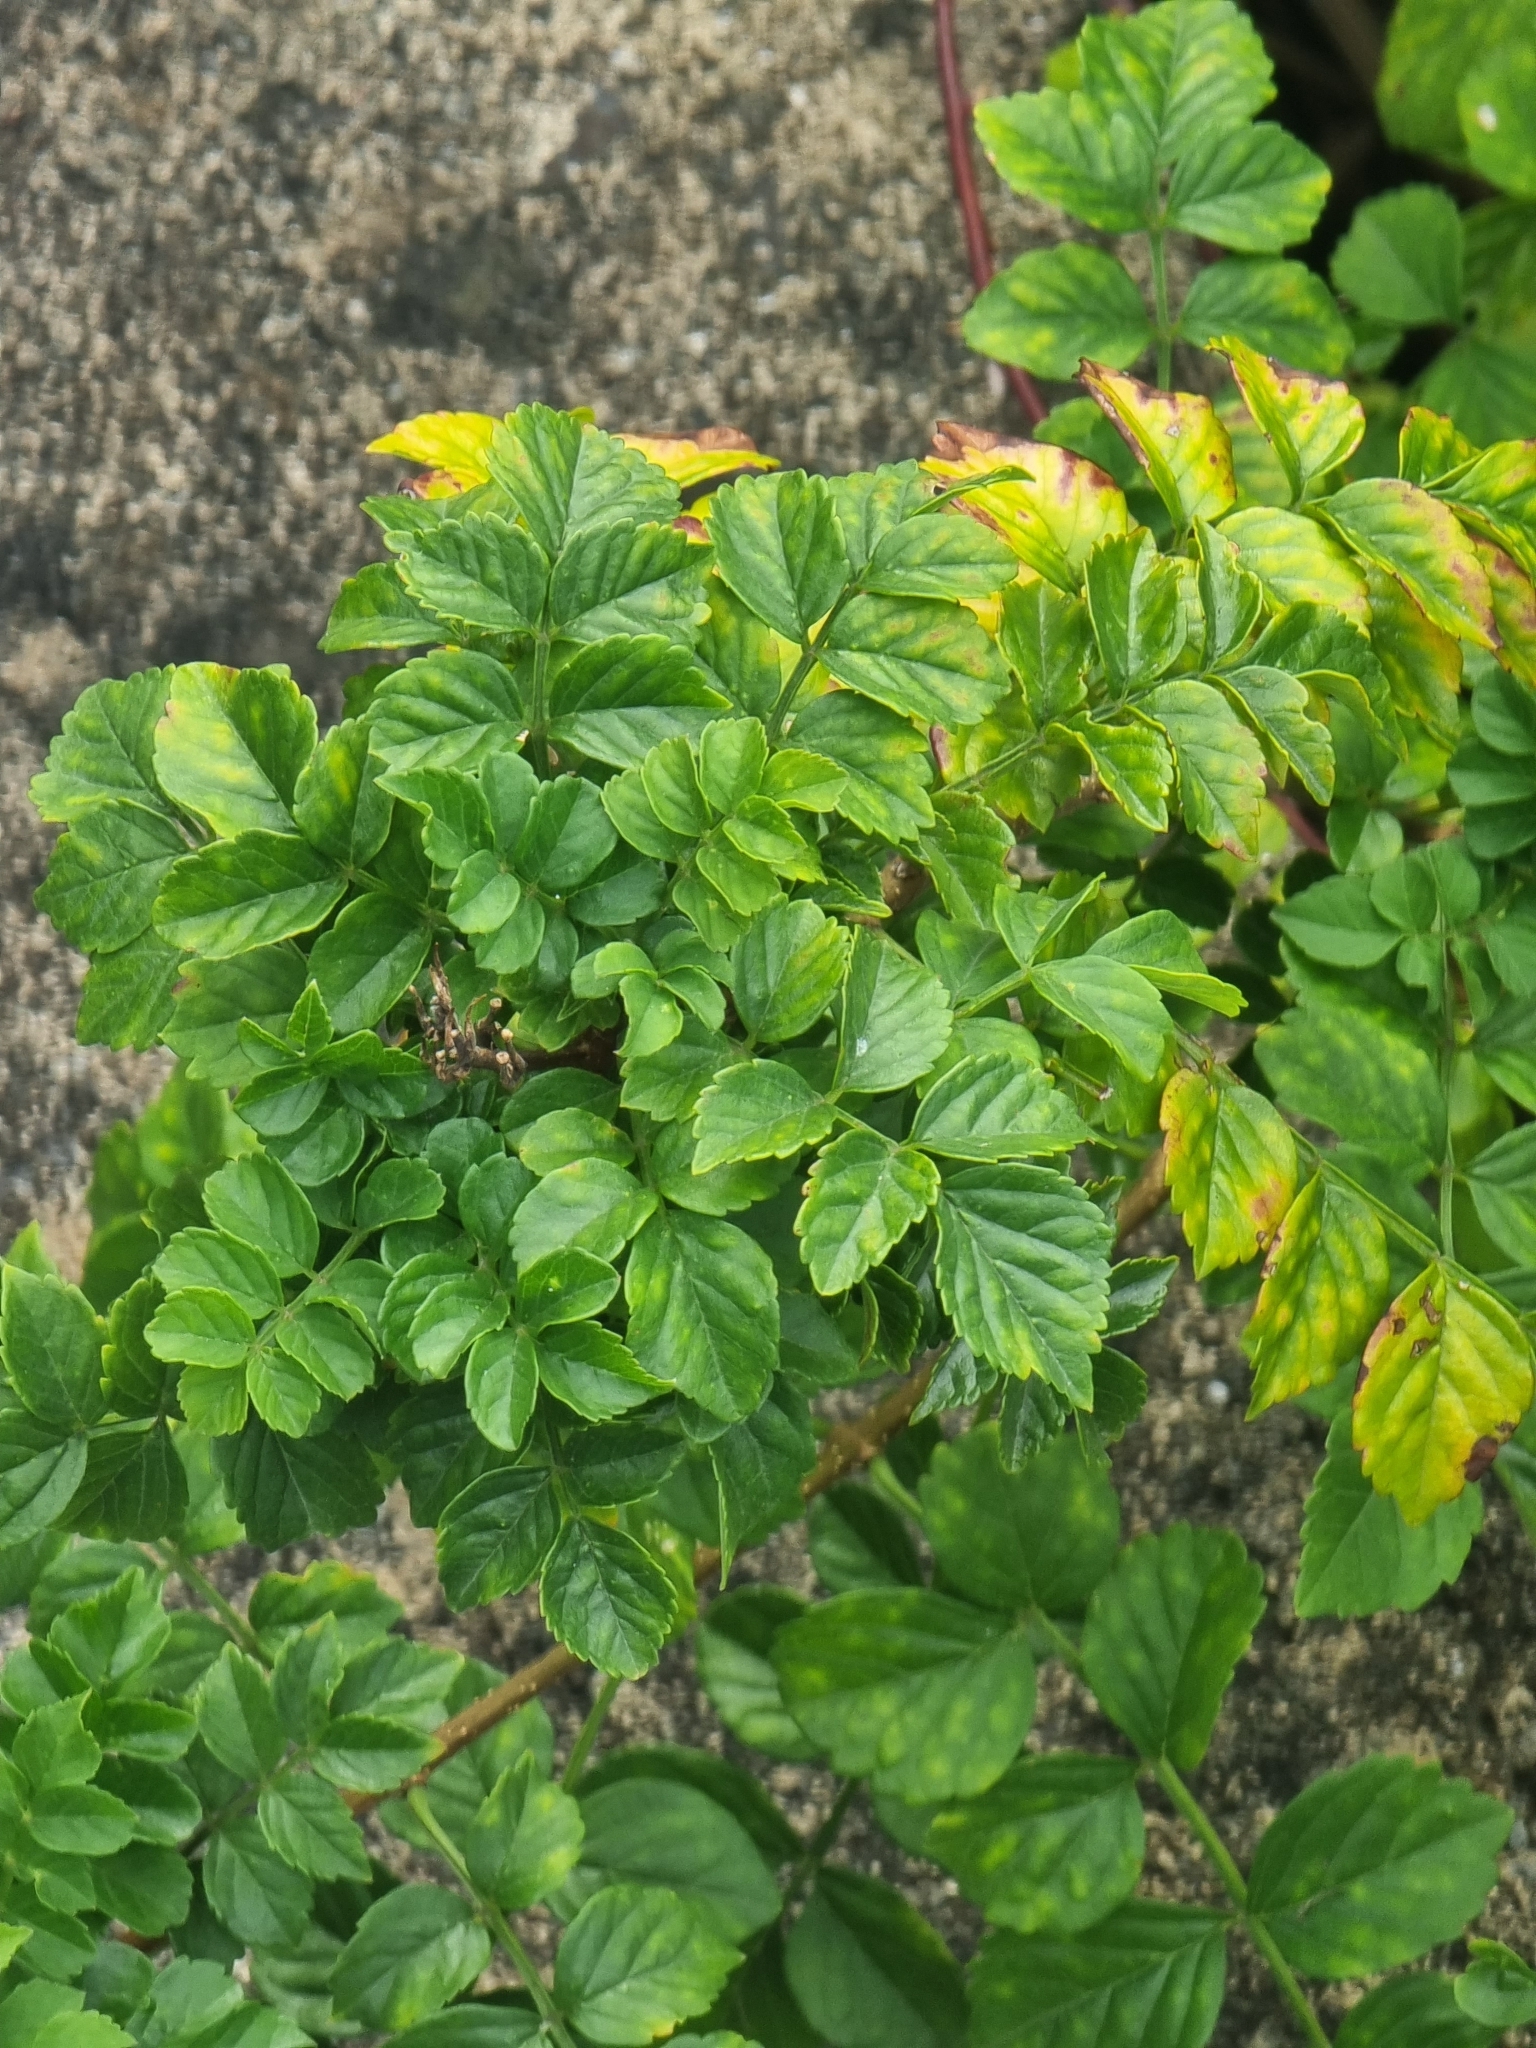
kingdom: Plantae
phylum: Tracheophyta
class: Magnoliopsida
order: Lamiales
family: Bignoniaceae
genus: Tecomaria
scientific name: Tecomaria capensis
